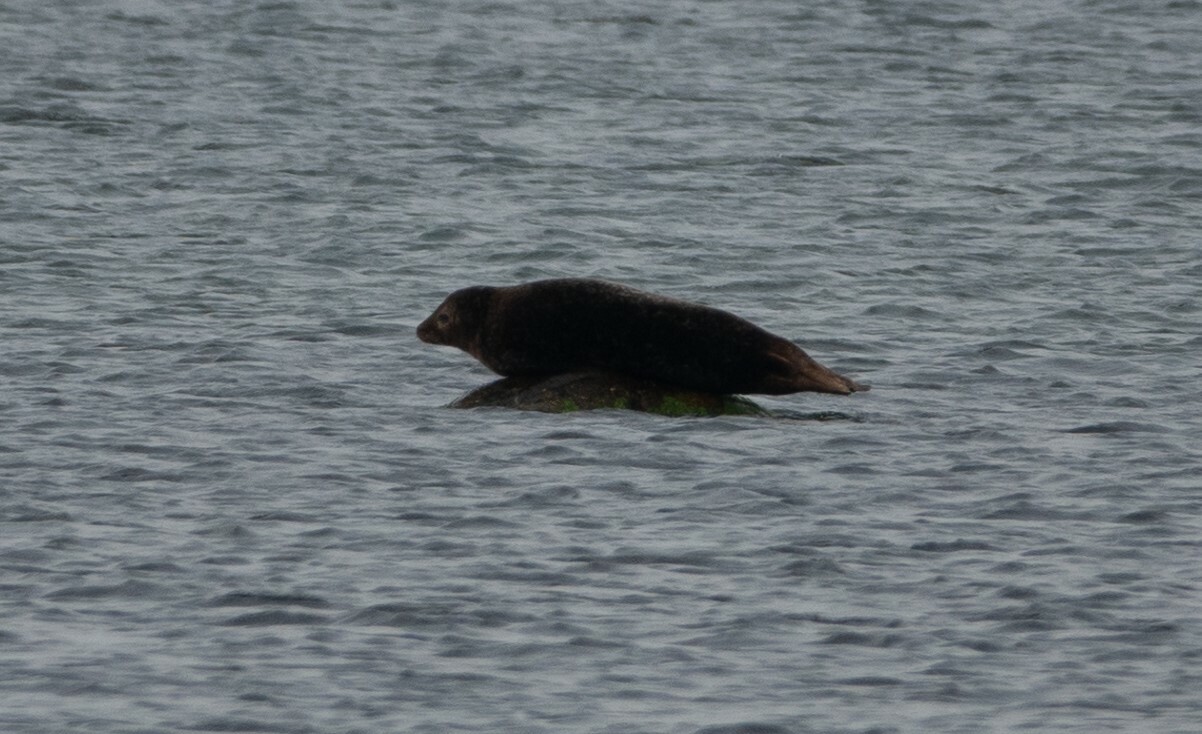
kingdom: Animalia
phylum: Chordata
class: Mammalia
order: Carnivora
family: Phocidae
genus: Phoca
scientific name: Phoca vitulina
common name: Harbor seal
